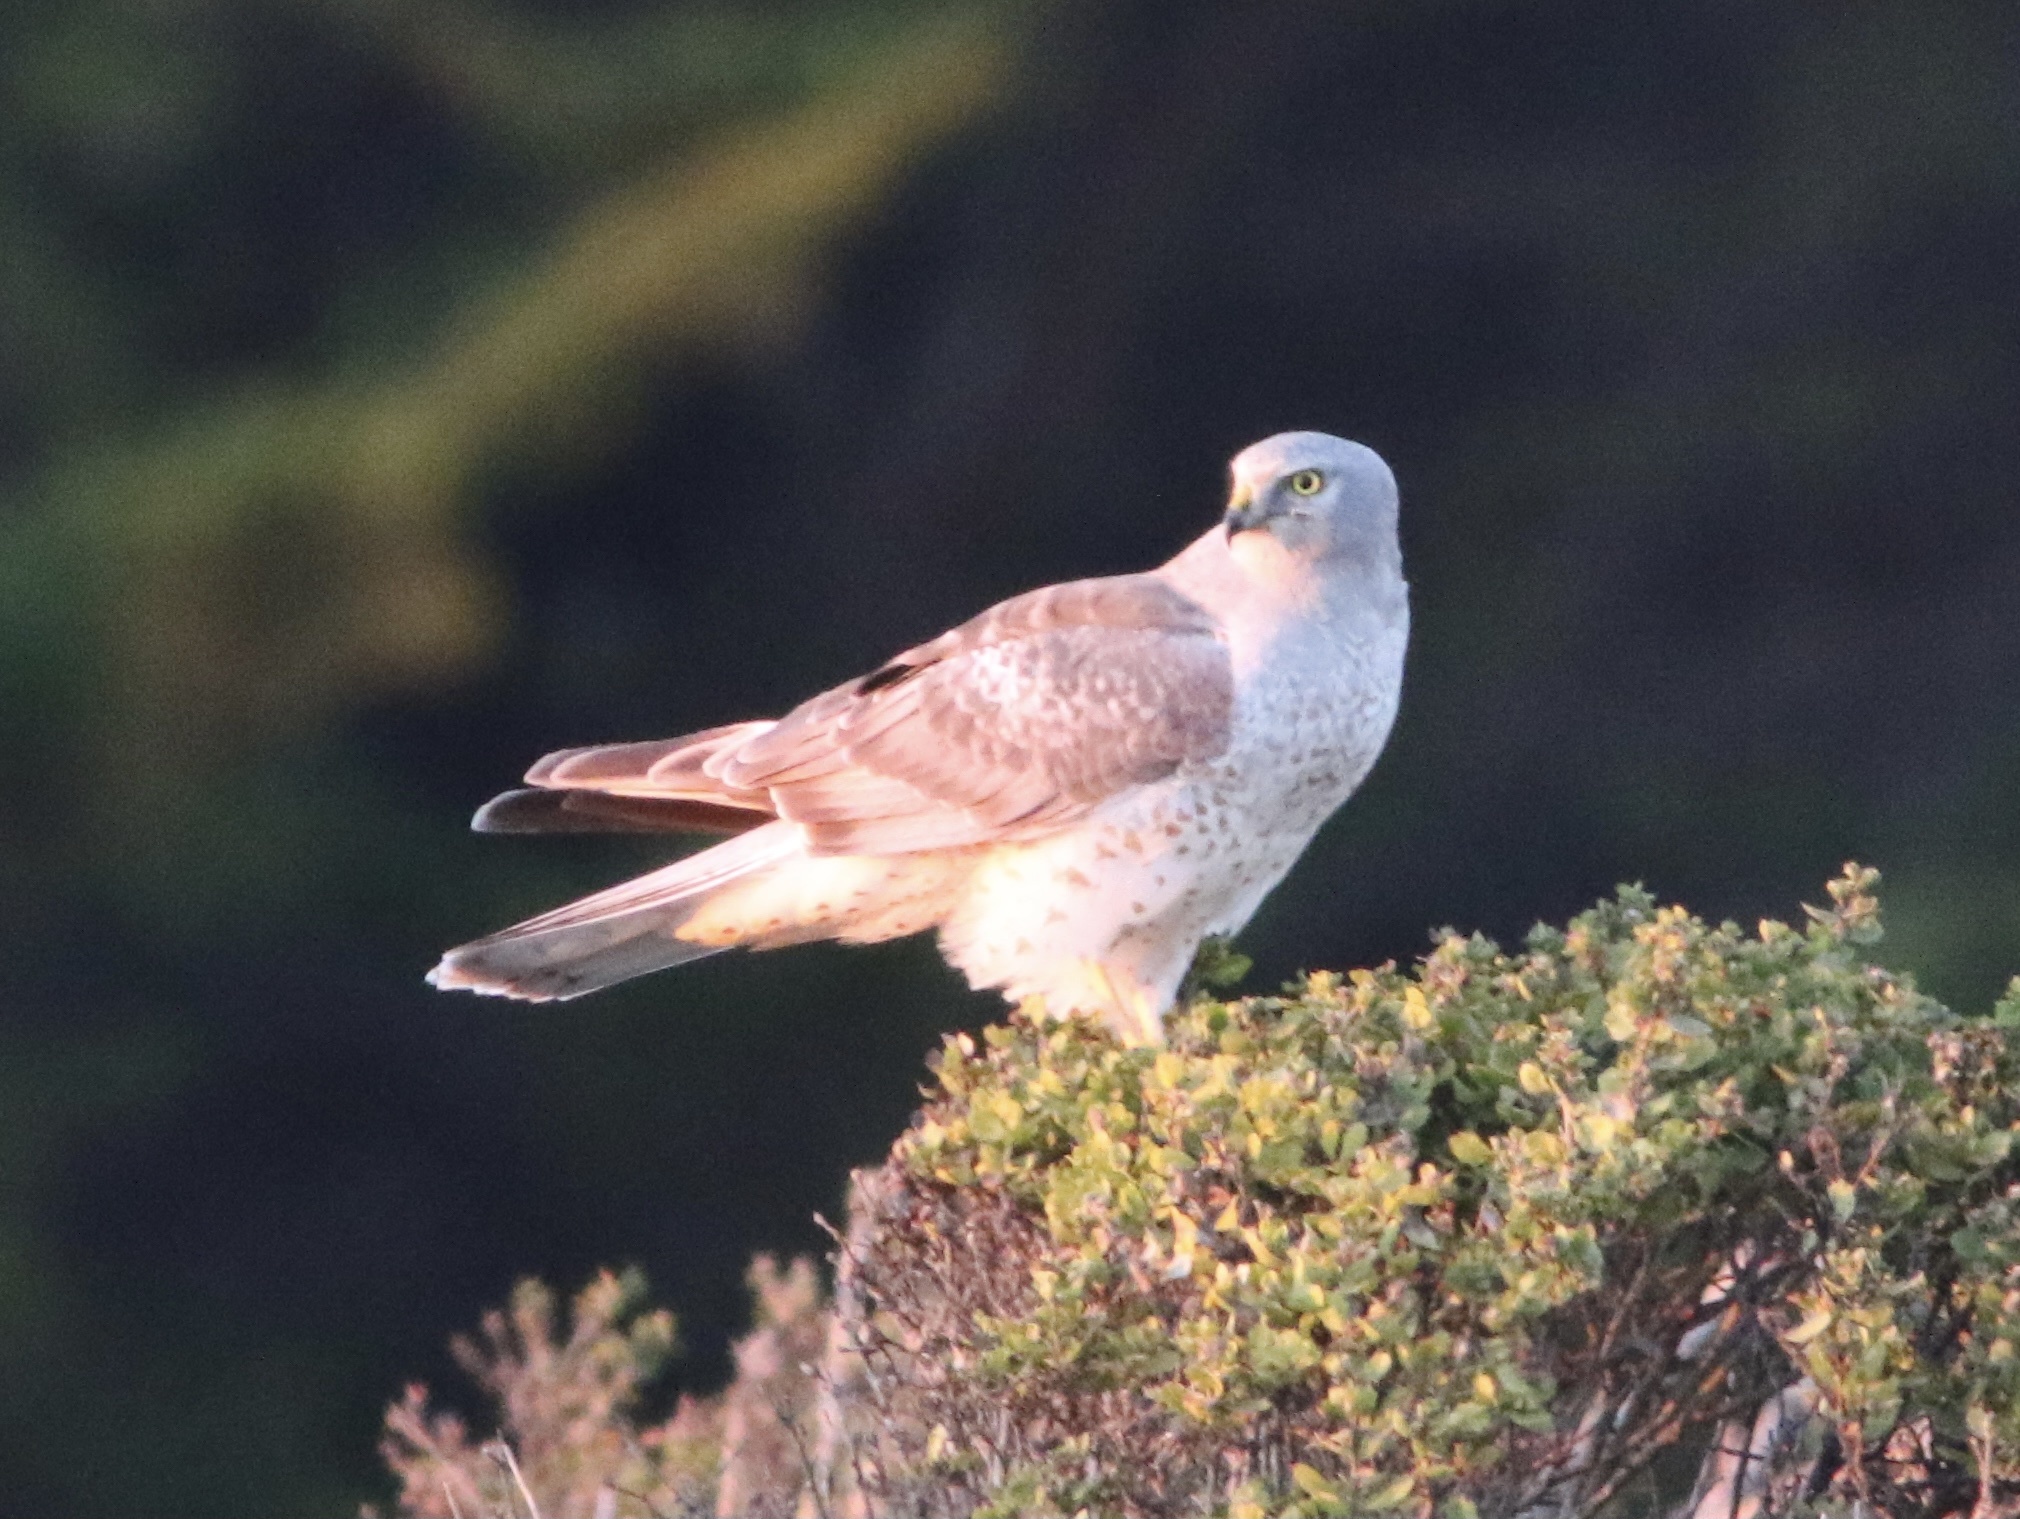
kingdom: Animalia
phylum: Chordata
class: Aves
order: Accipitriformes
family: Accipitridae
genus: Circus
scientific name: Circus cyaneus
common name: Hen harrier
